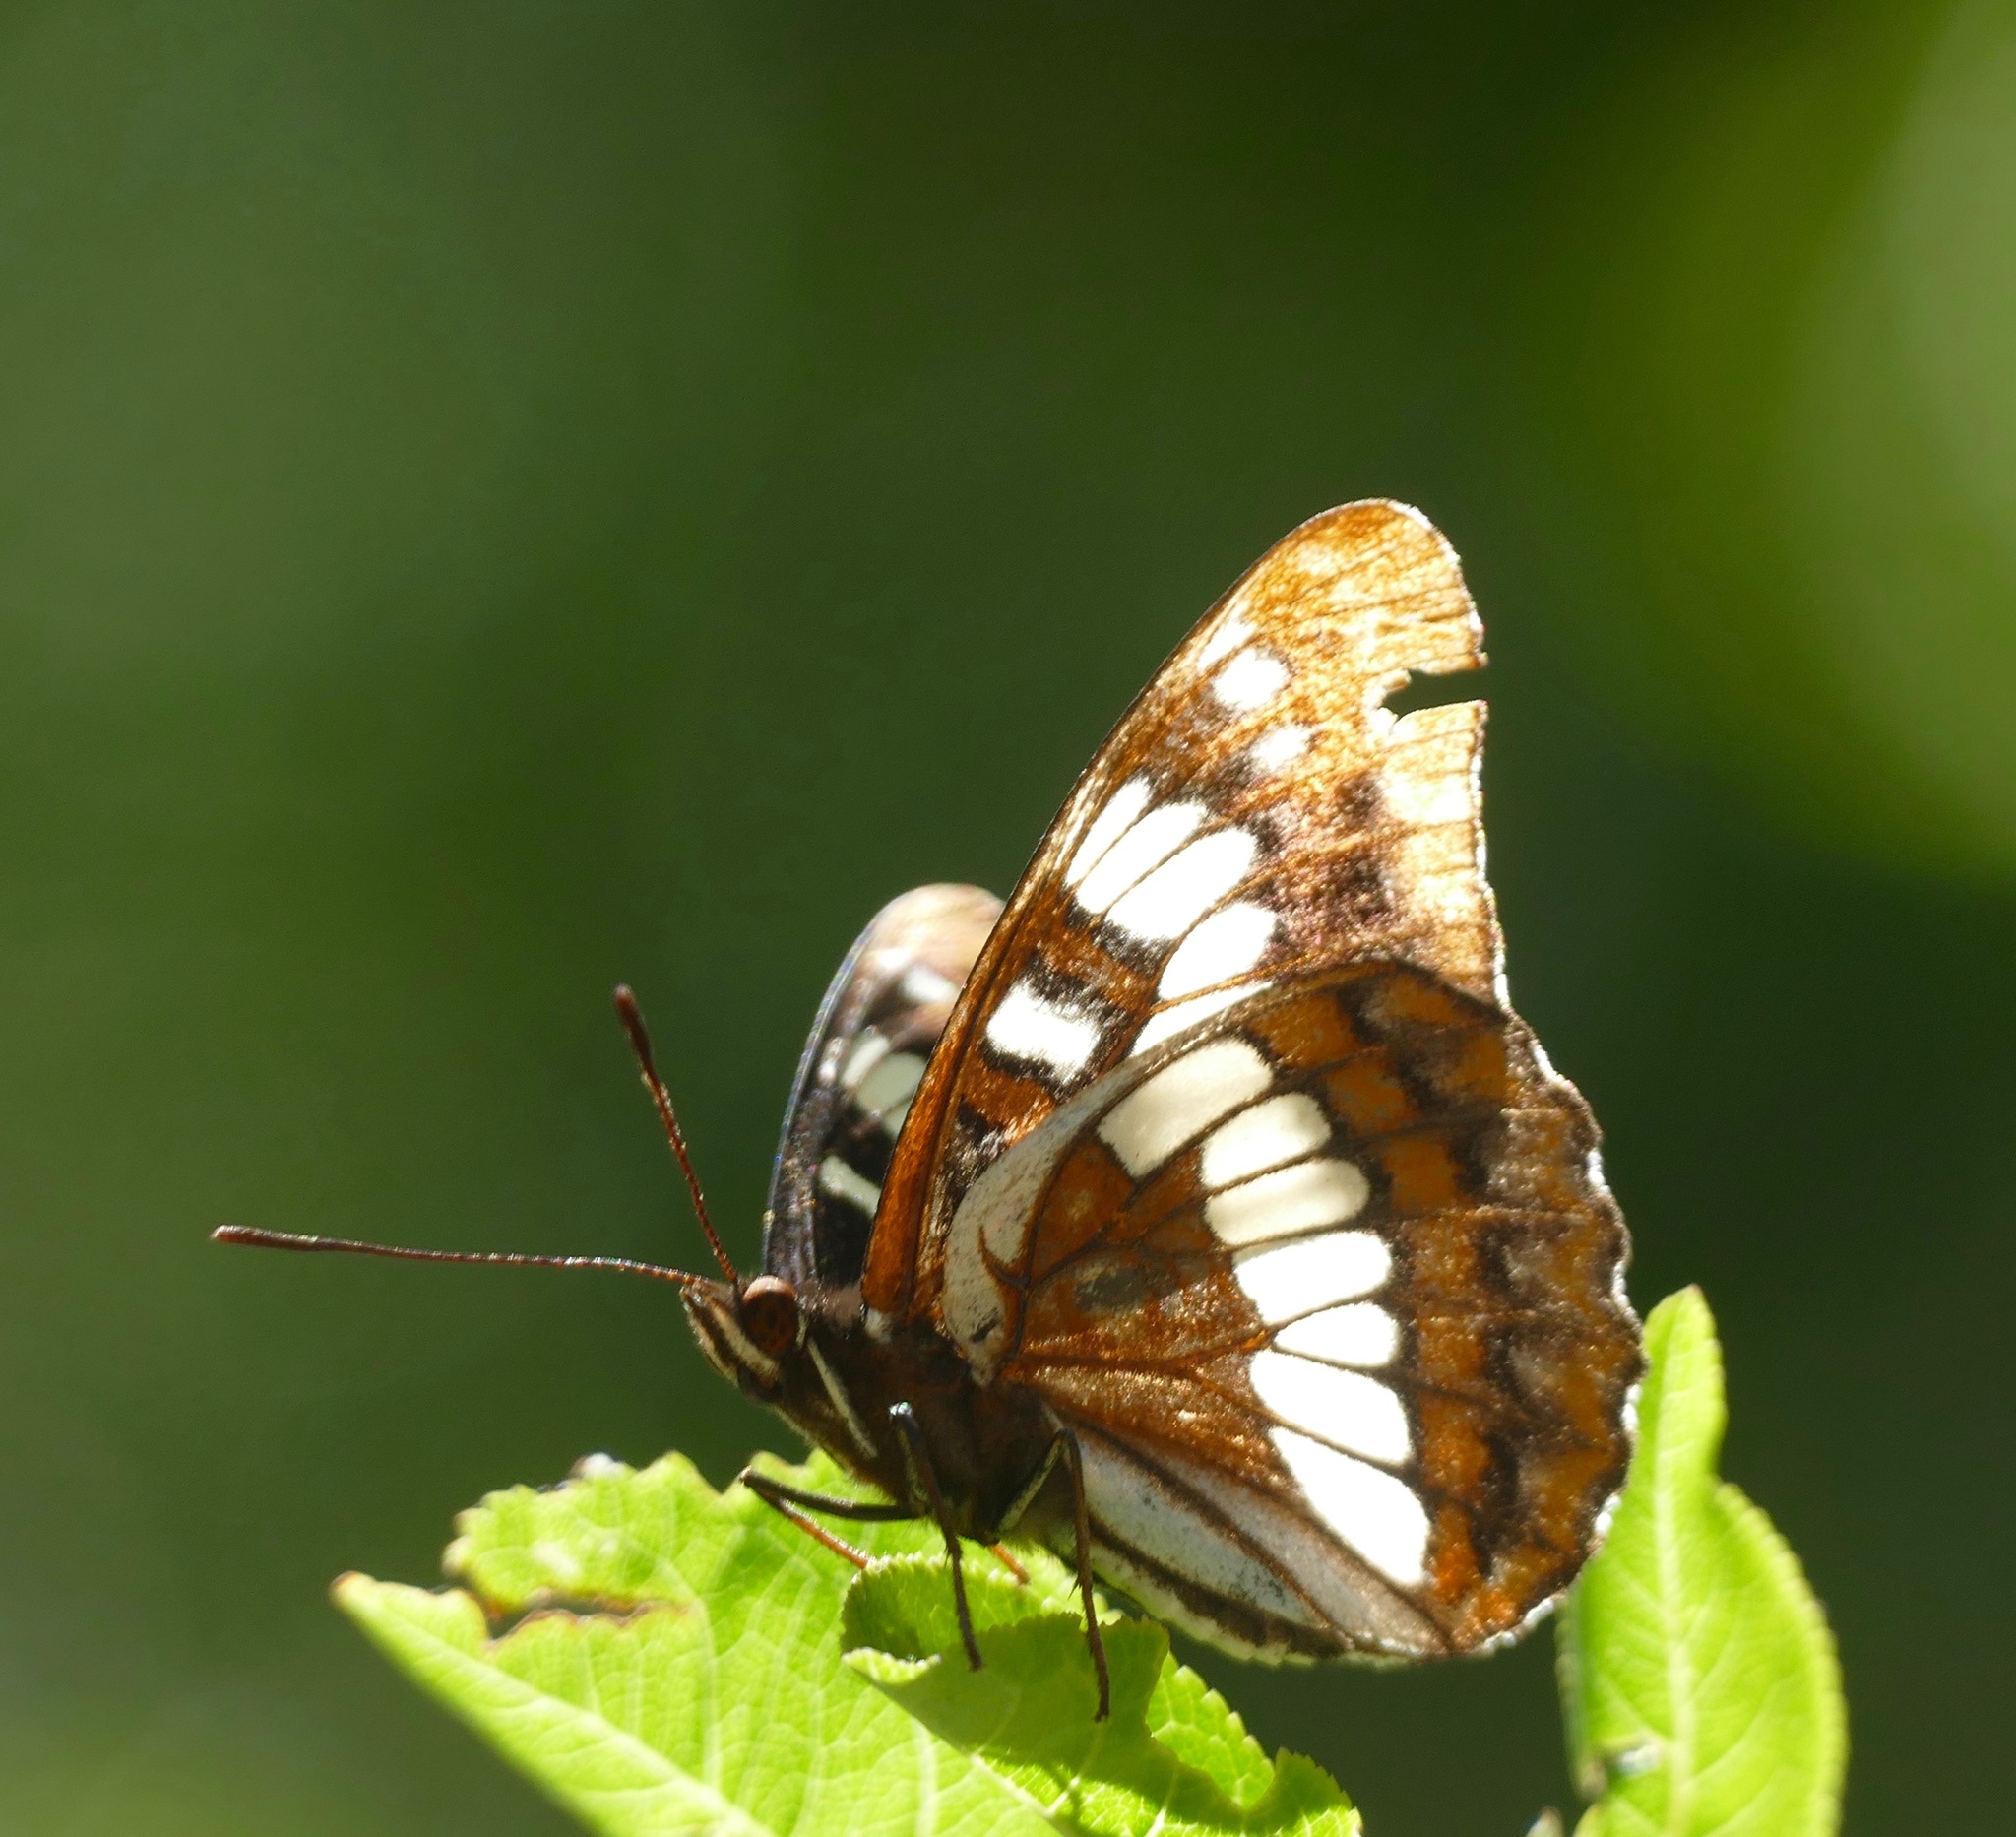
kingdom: Animalia
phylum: Arthropoda
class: Insecta
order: Lepidoptera
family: Nymphalidae
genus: Limenitis
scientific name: Limenitis lorquini
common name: Lorquin's admiral
